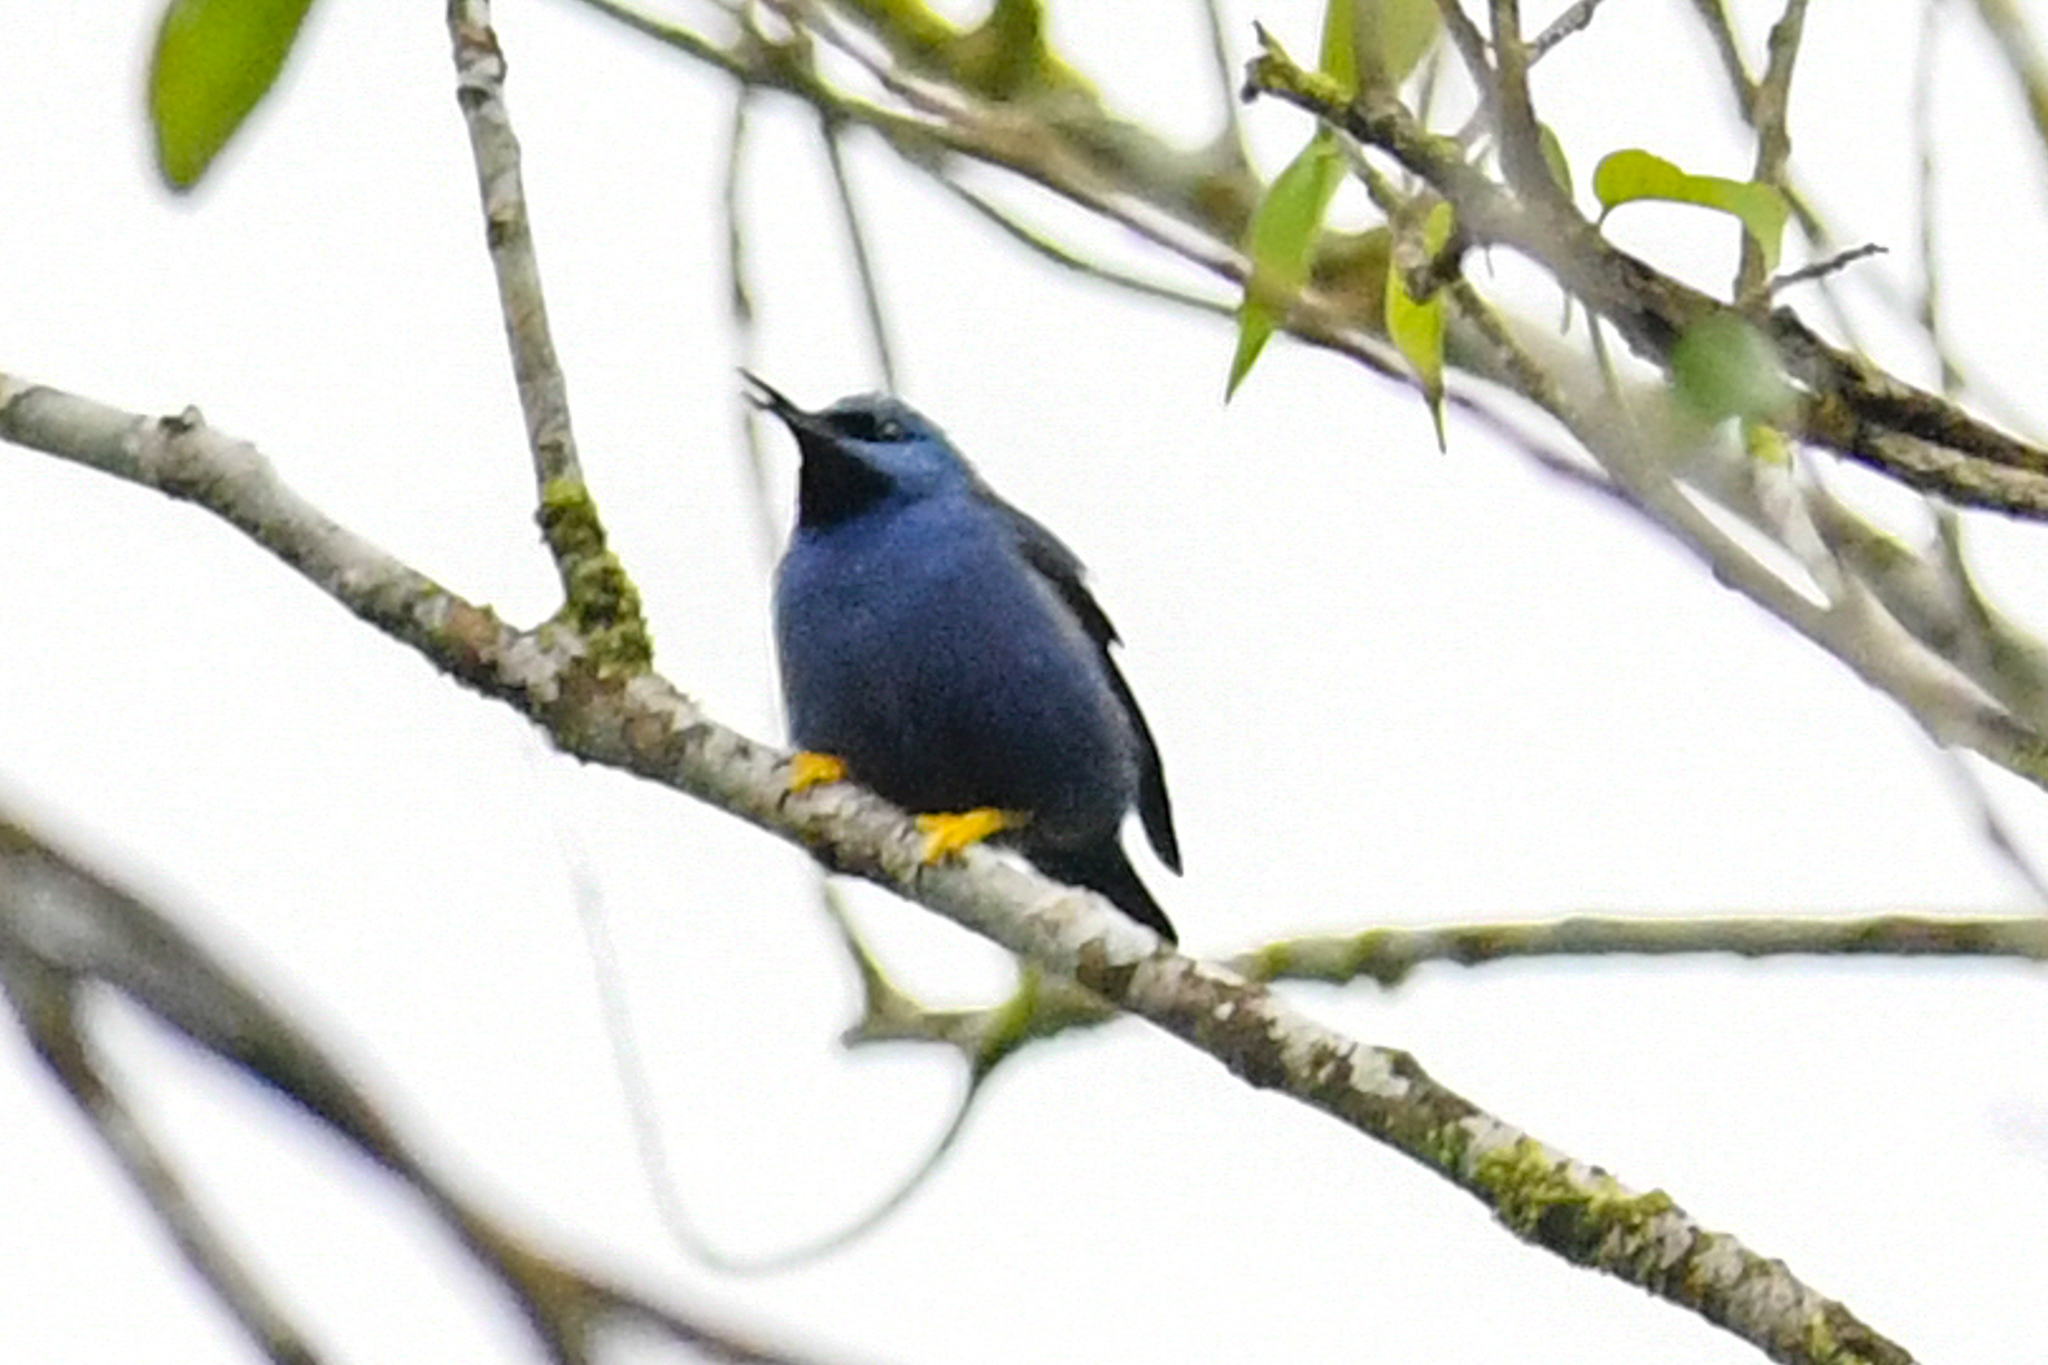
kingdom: Animalia
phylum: Chordata
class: Aves
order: Passeriformes
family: Thraupidae
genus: Cyanerpes
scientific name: Cyanerpes lucidus
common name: Shining honeycreeper
